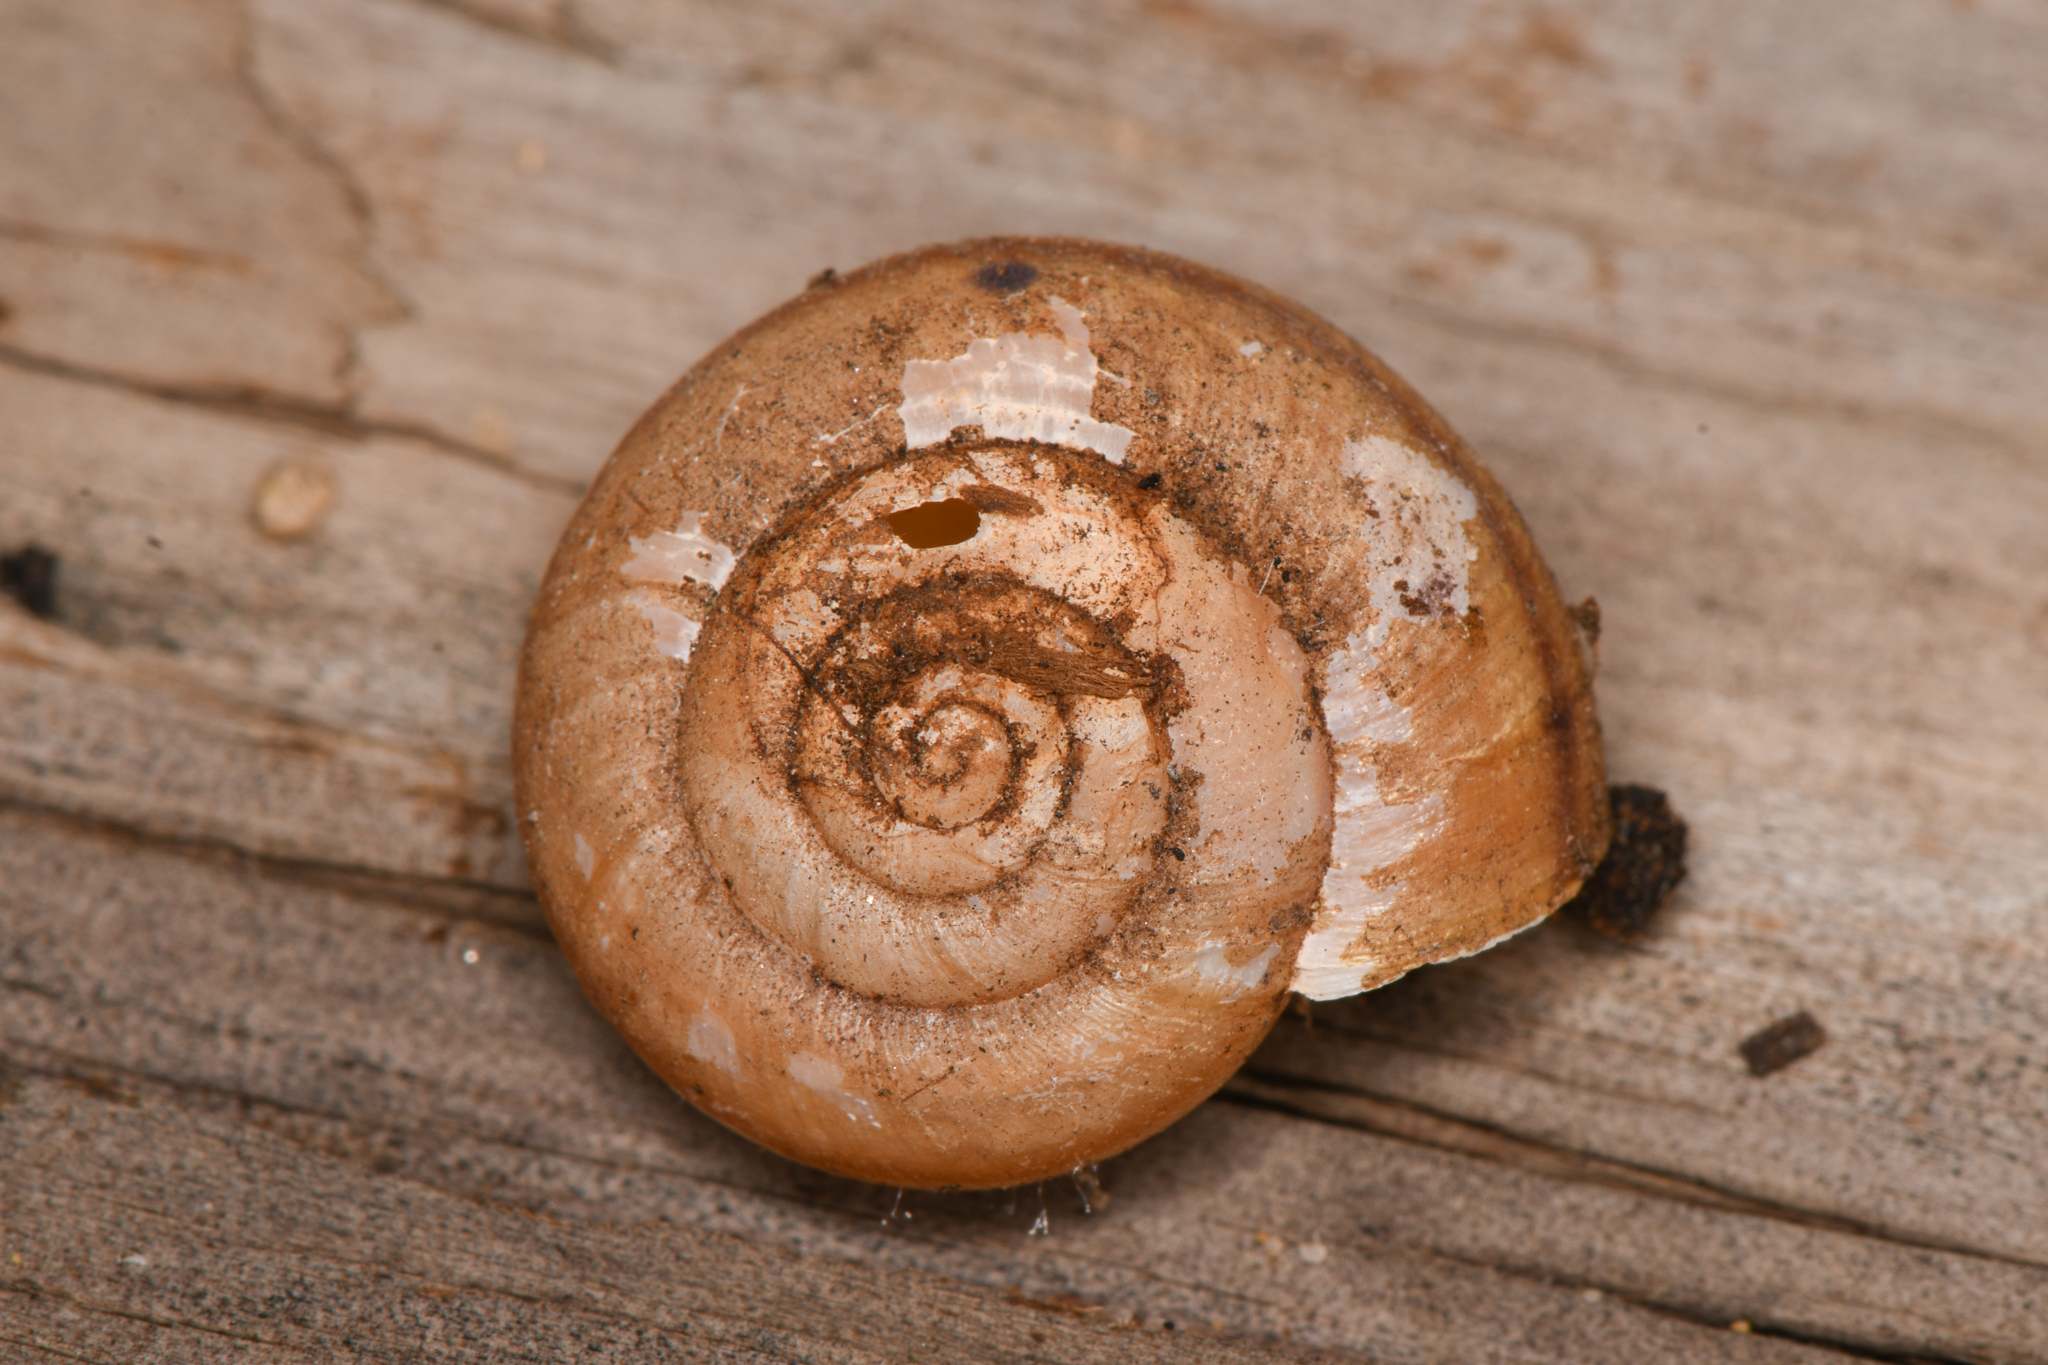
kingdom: Animalia
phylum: Mollusca
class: Gastropoda
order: Stylommatophora
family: Xanthonychidae
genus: Helminthoglypta
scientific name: Helminthoglypta carpenteri
